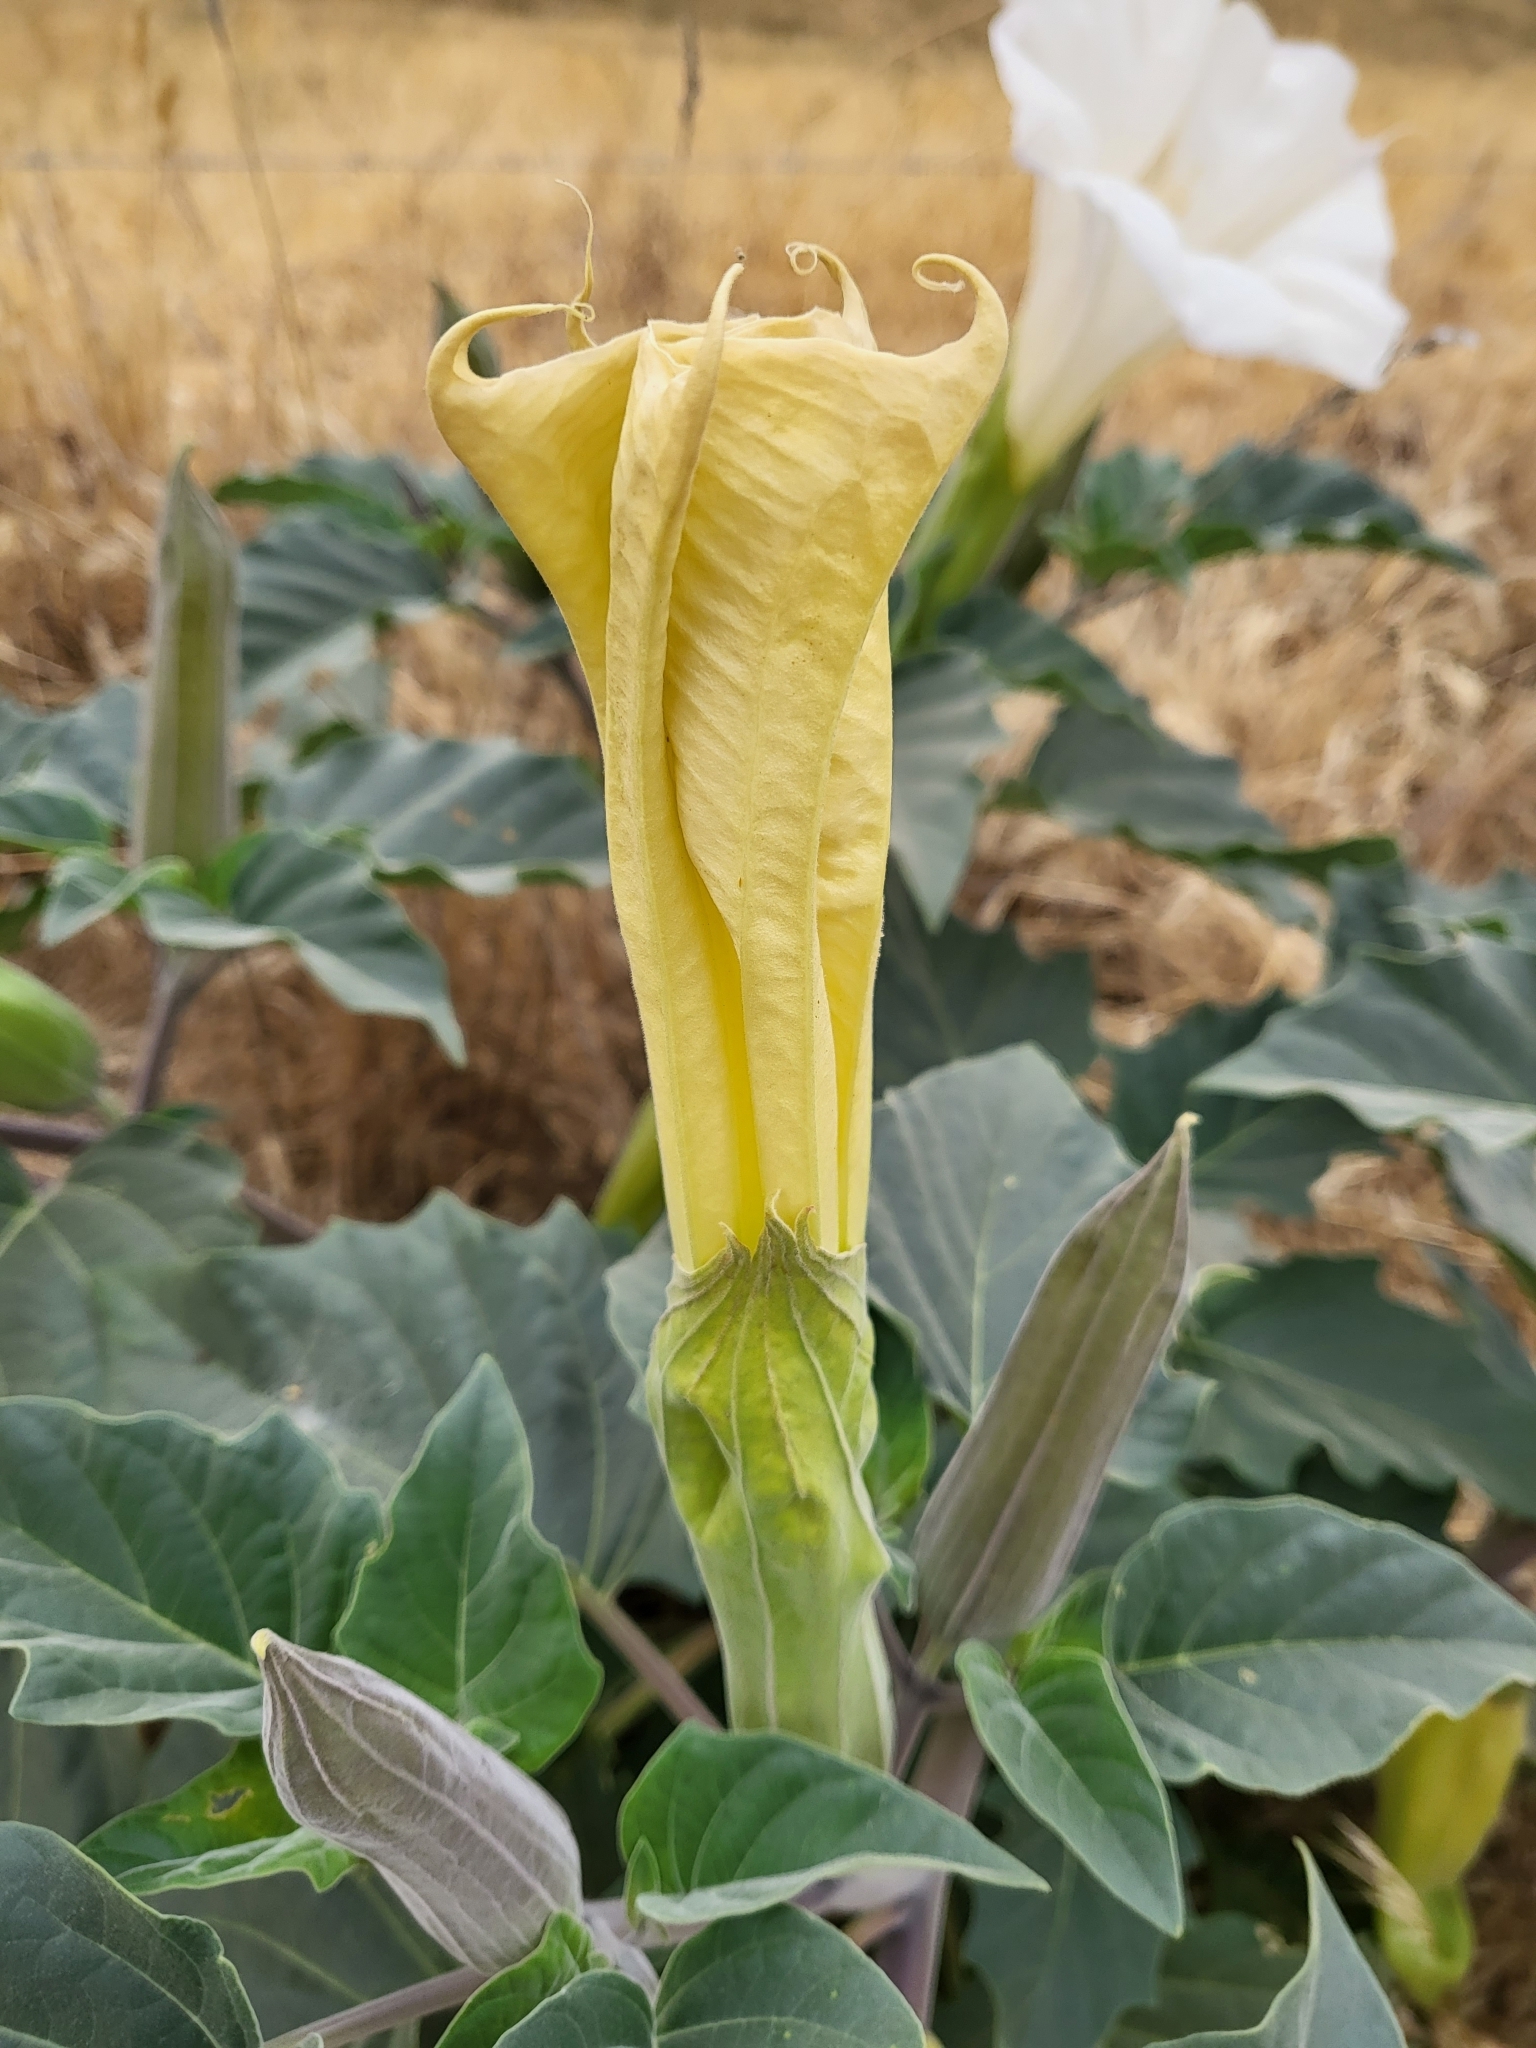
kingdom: Plantae
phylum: Tracheophyta
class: Magnoliopsida
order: Solanales
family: Solanaceae
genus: Datura
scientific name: Datura wrightii
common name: Sacred thorn-apple
